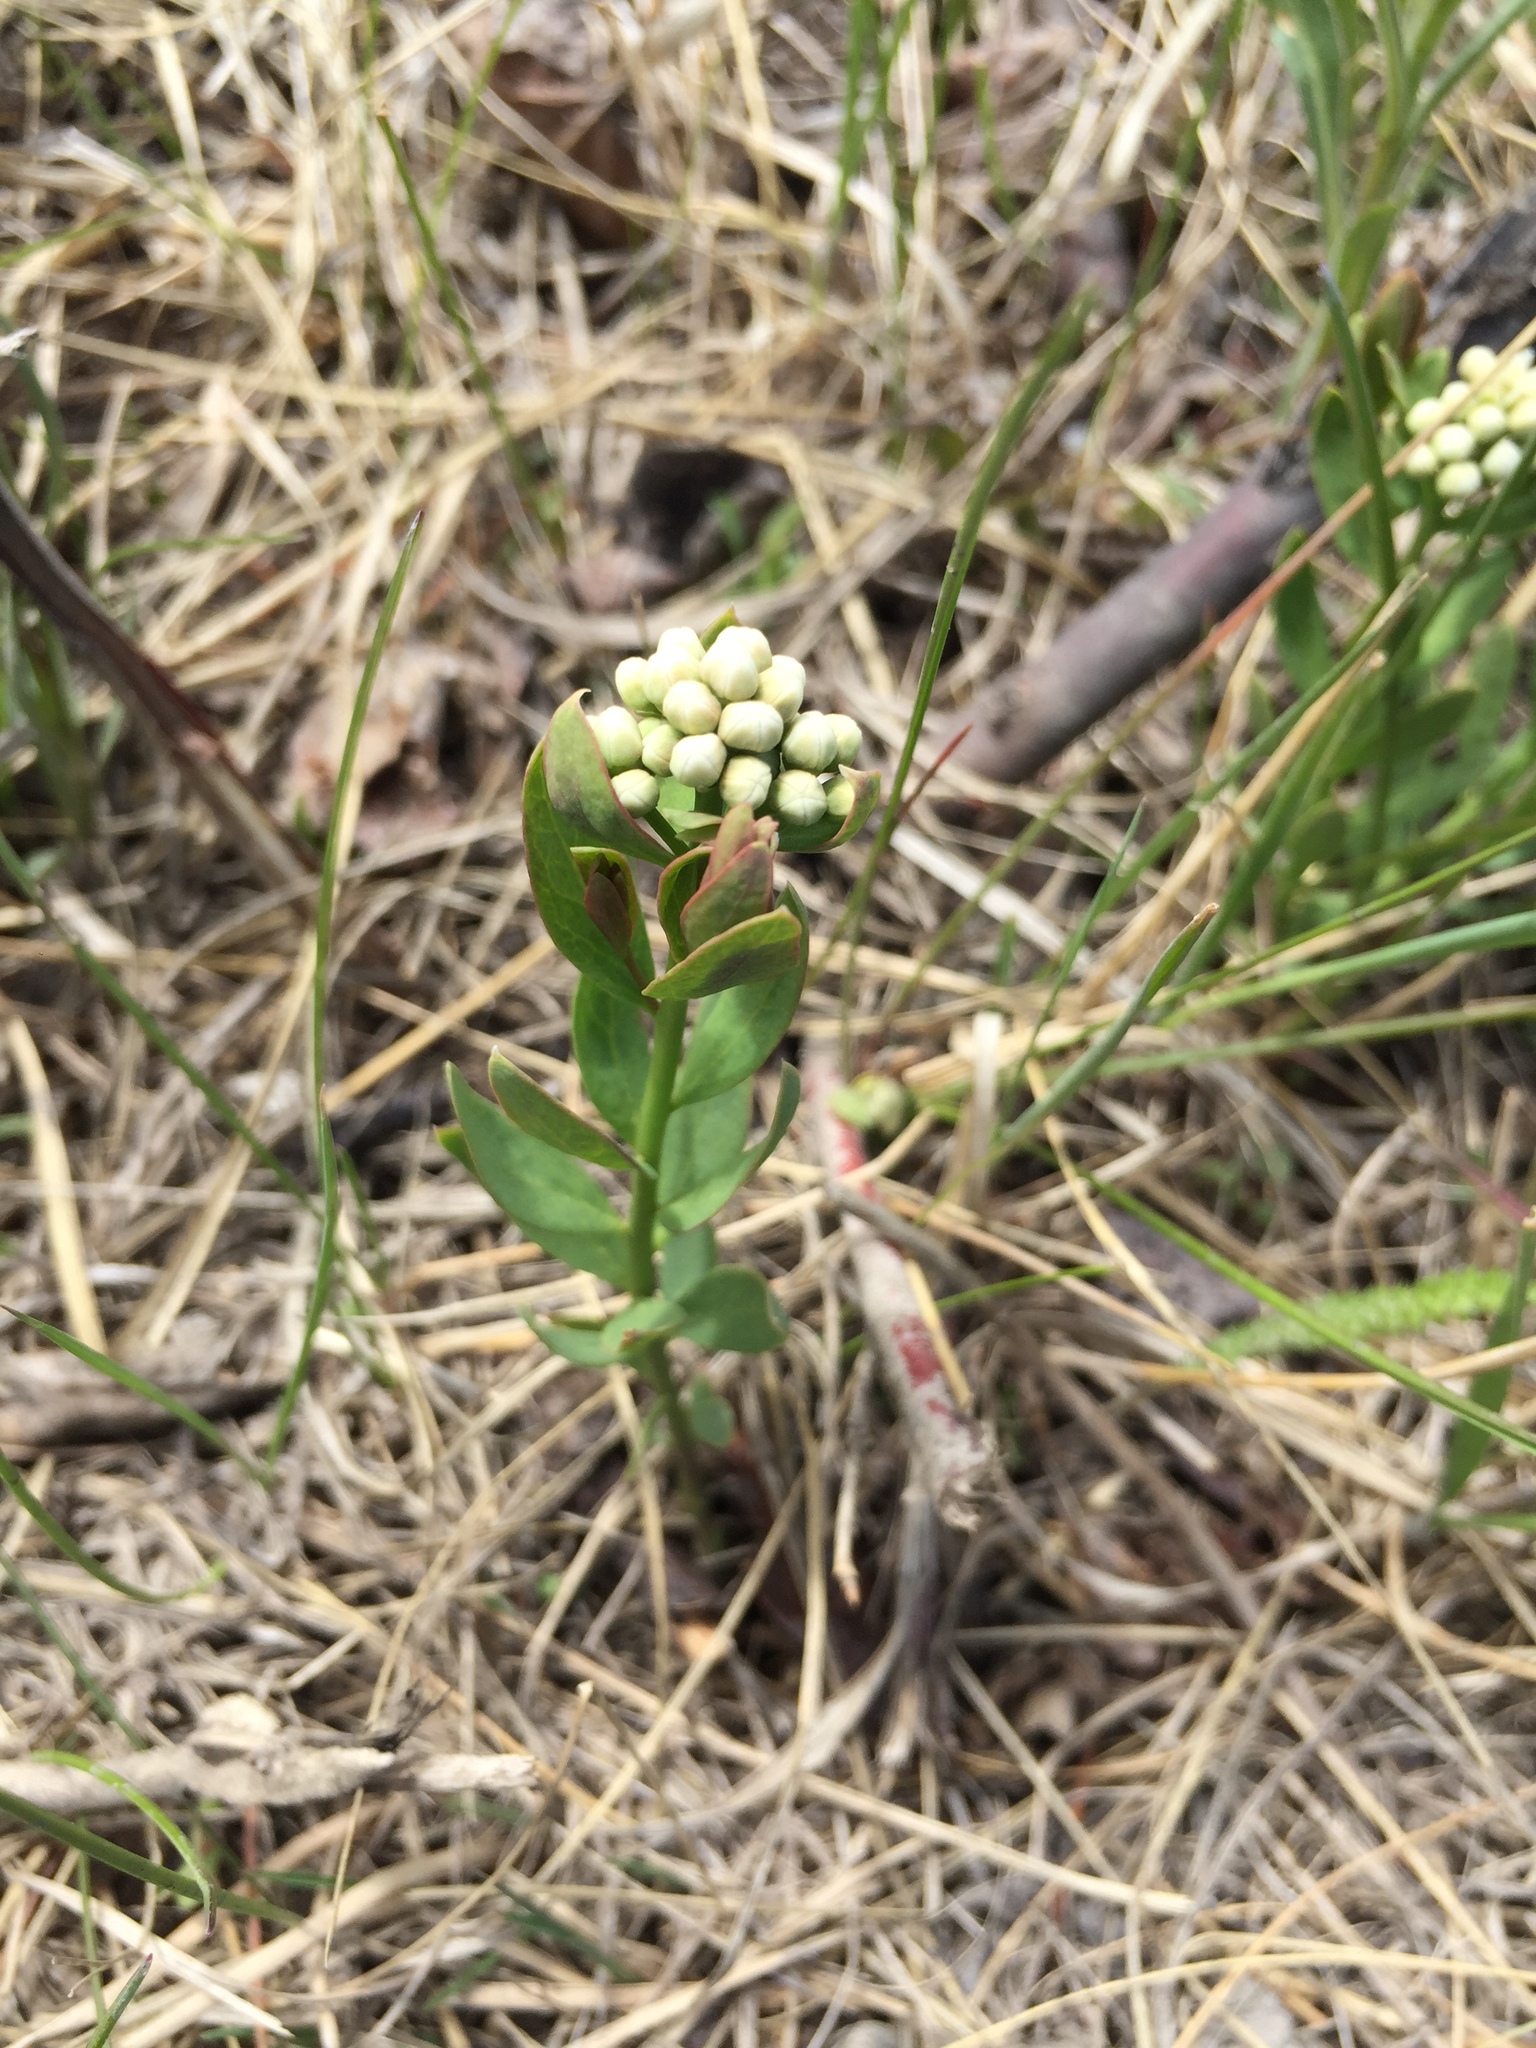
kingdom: Plantae
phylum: Tracheophyta
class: Magnoliopsida
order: Santalales
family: Comandraceae
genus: Comandra
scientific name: Comandra umbellata
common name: Bastard toadflax
